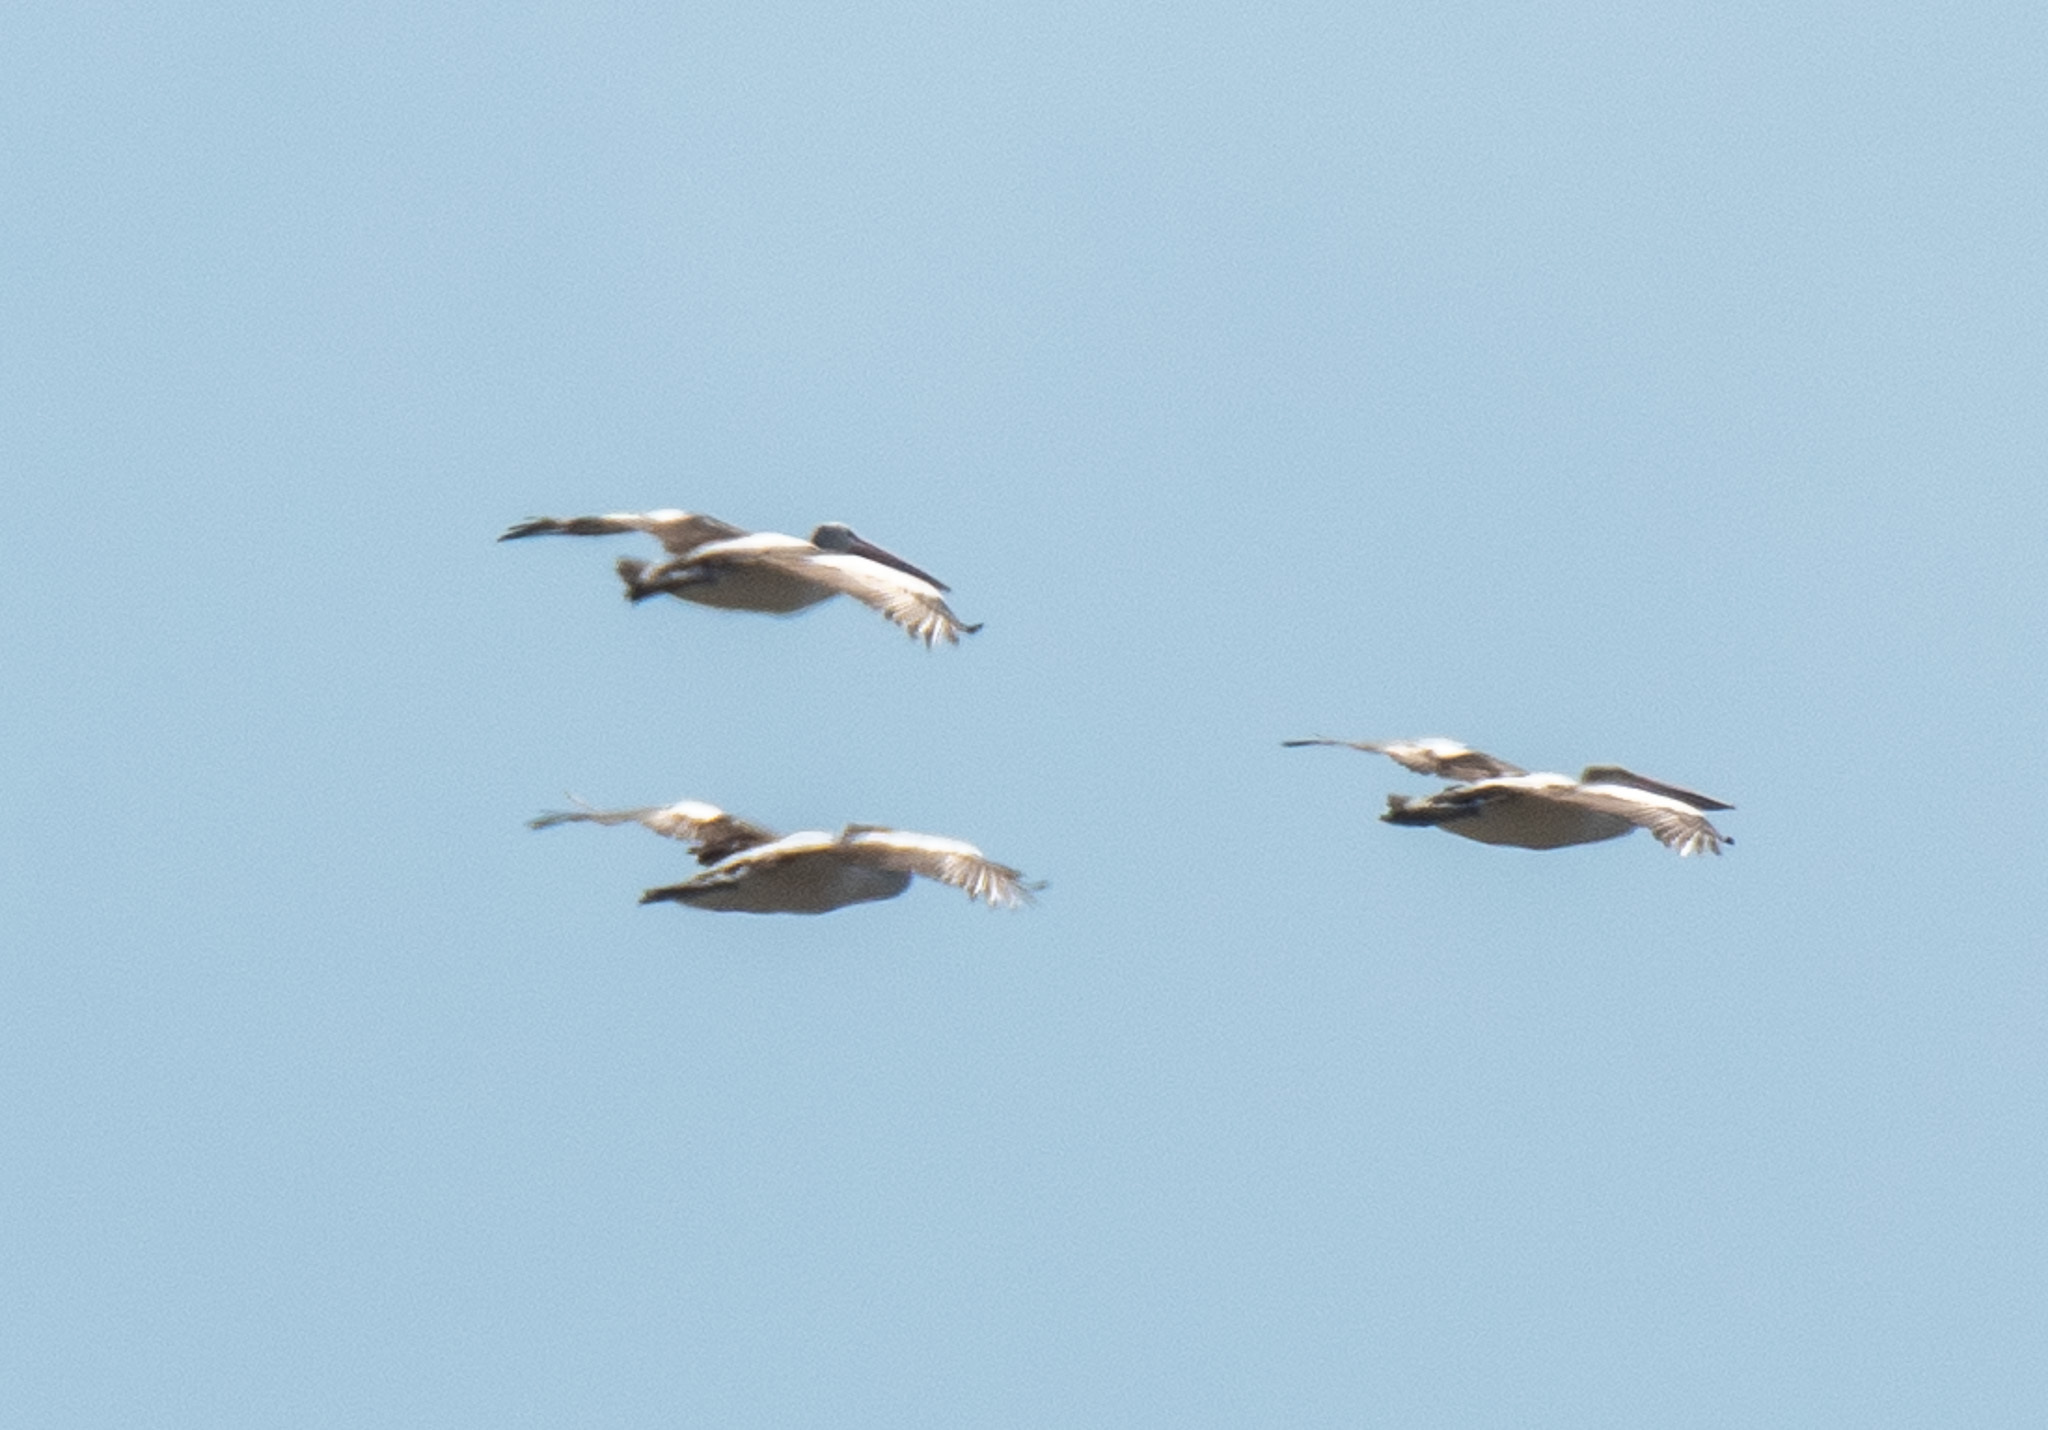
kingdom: Animalia
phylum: Chordata
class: Aves
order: Pelecaniformes
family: Pelecanidae
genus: Pelecanus
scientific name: Pelecanus conspicillatus
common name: Australian pelican
